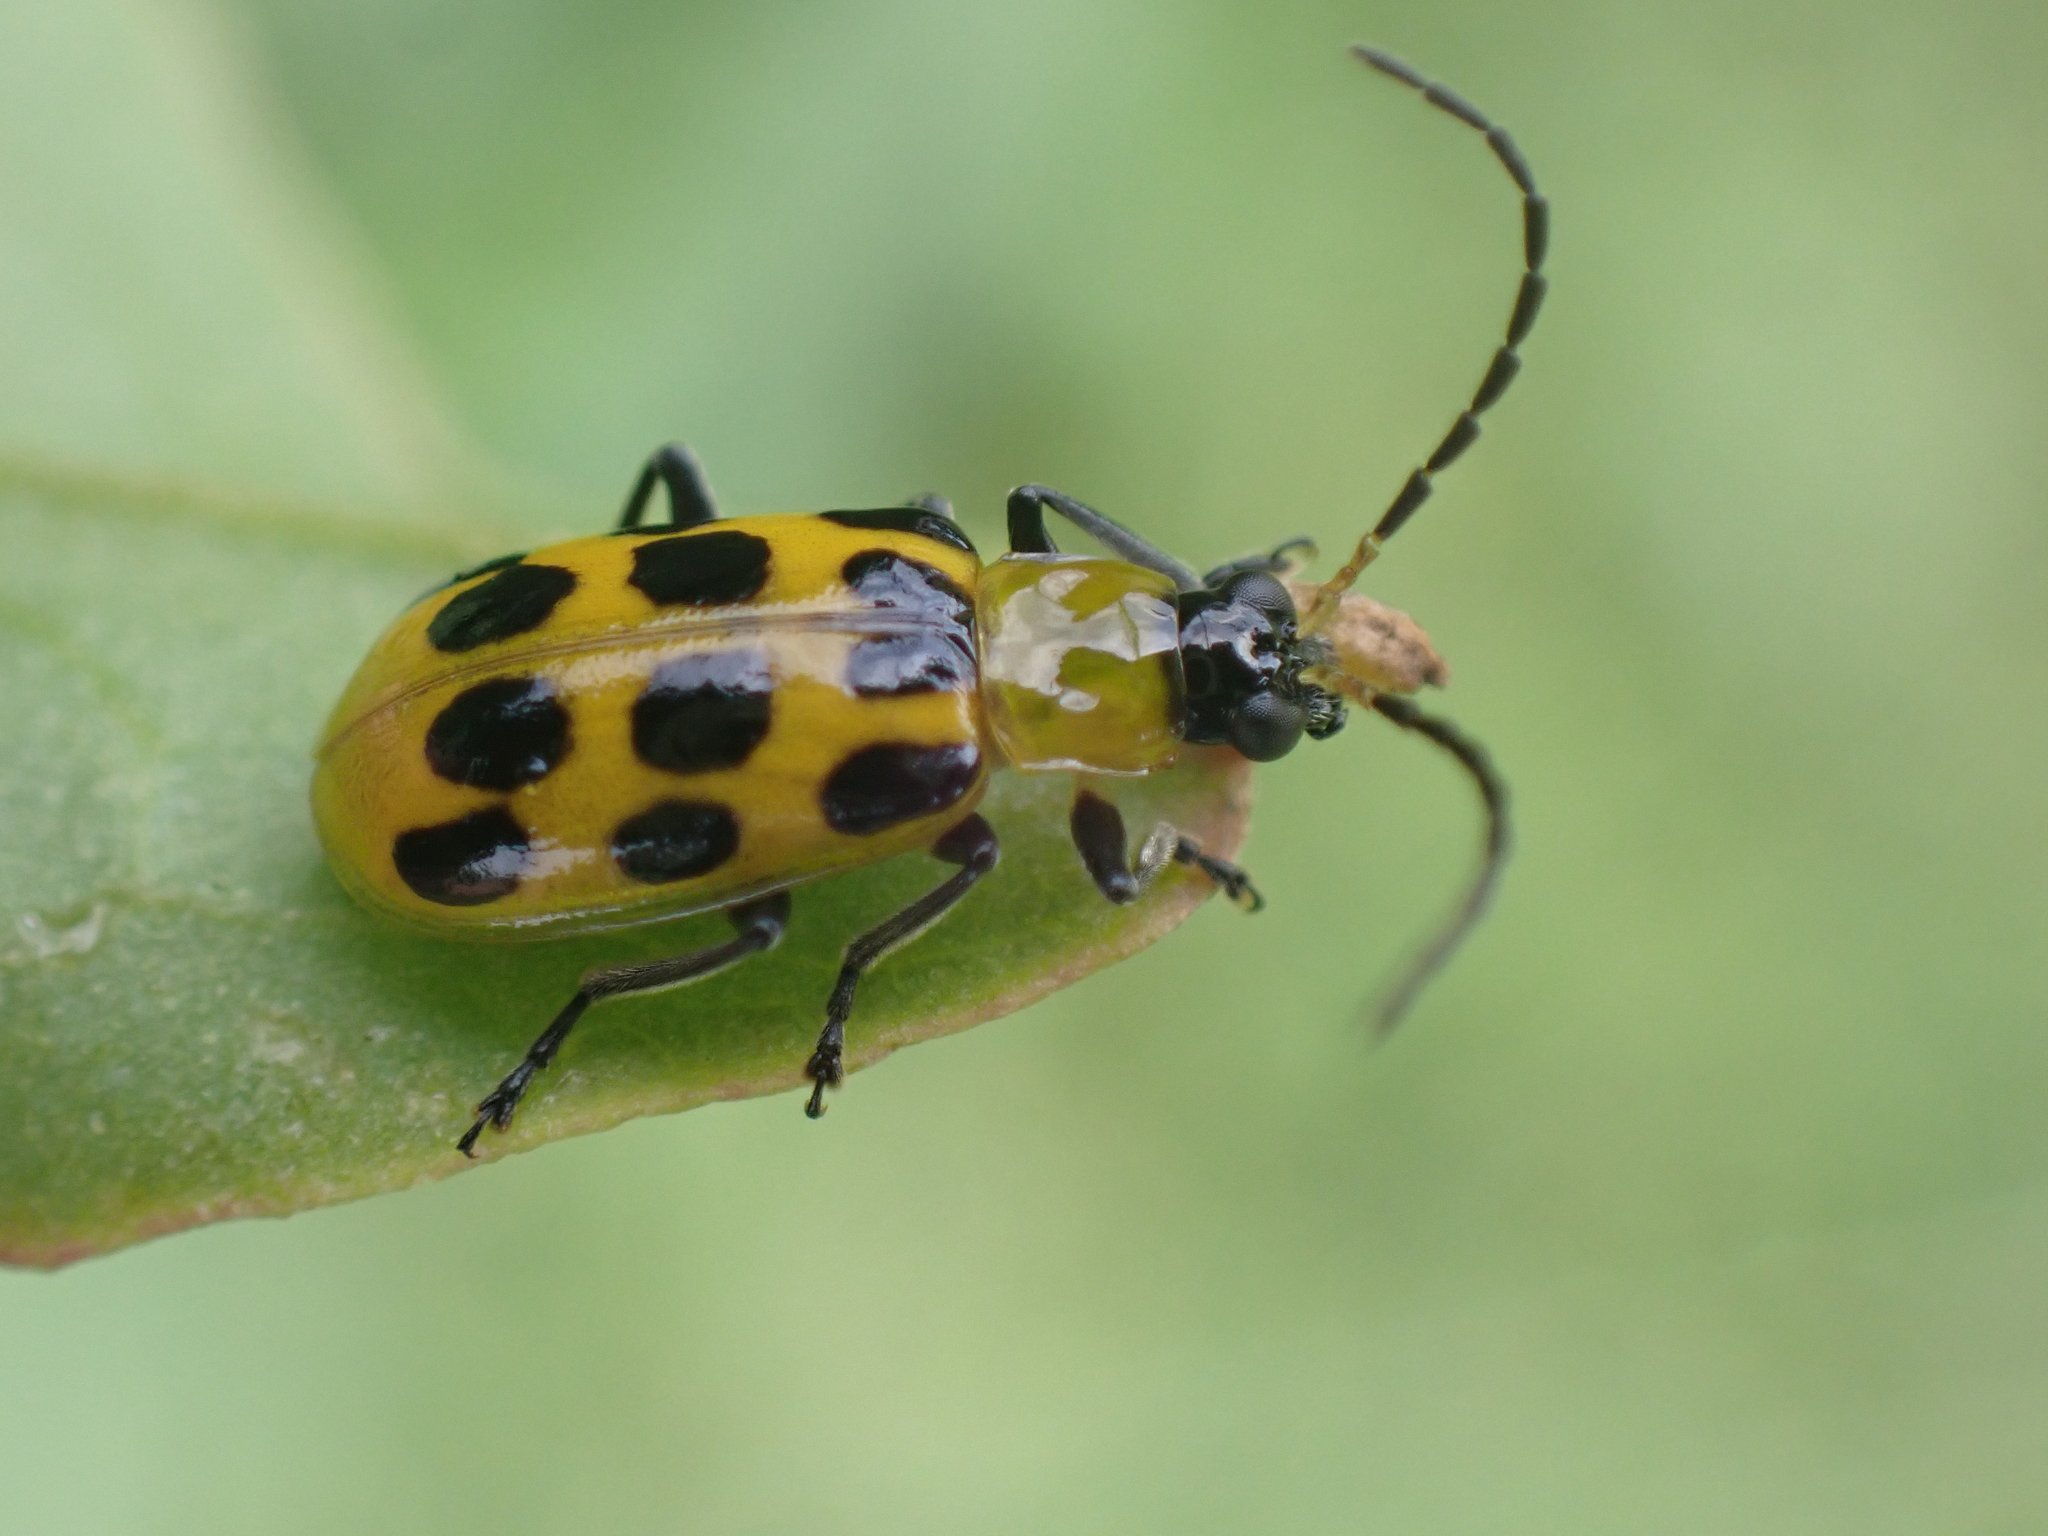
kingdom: Animalia
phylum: Arthropoda
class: Insecta
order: Coleoptera
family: Chrysomelidae
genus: Diabrotica
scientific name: Diabrotica undecimpunctata
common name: Spotted cucumber beetle
